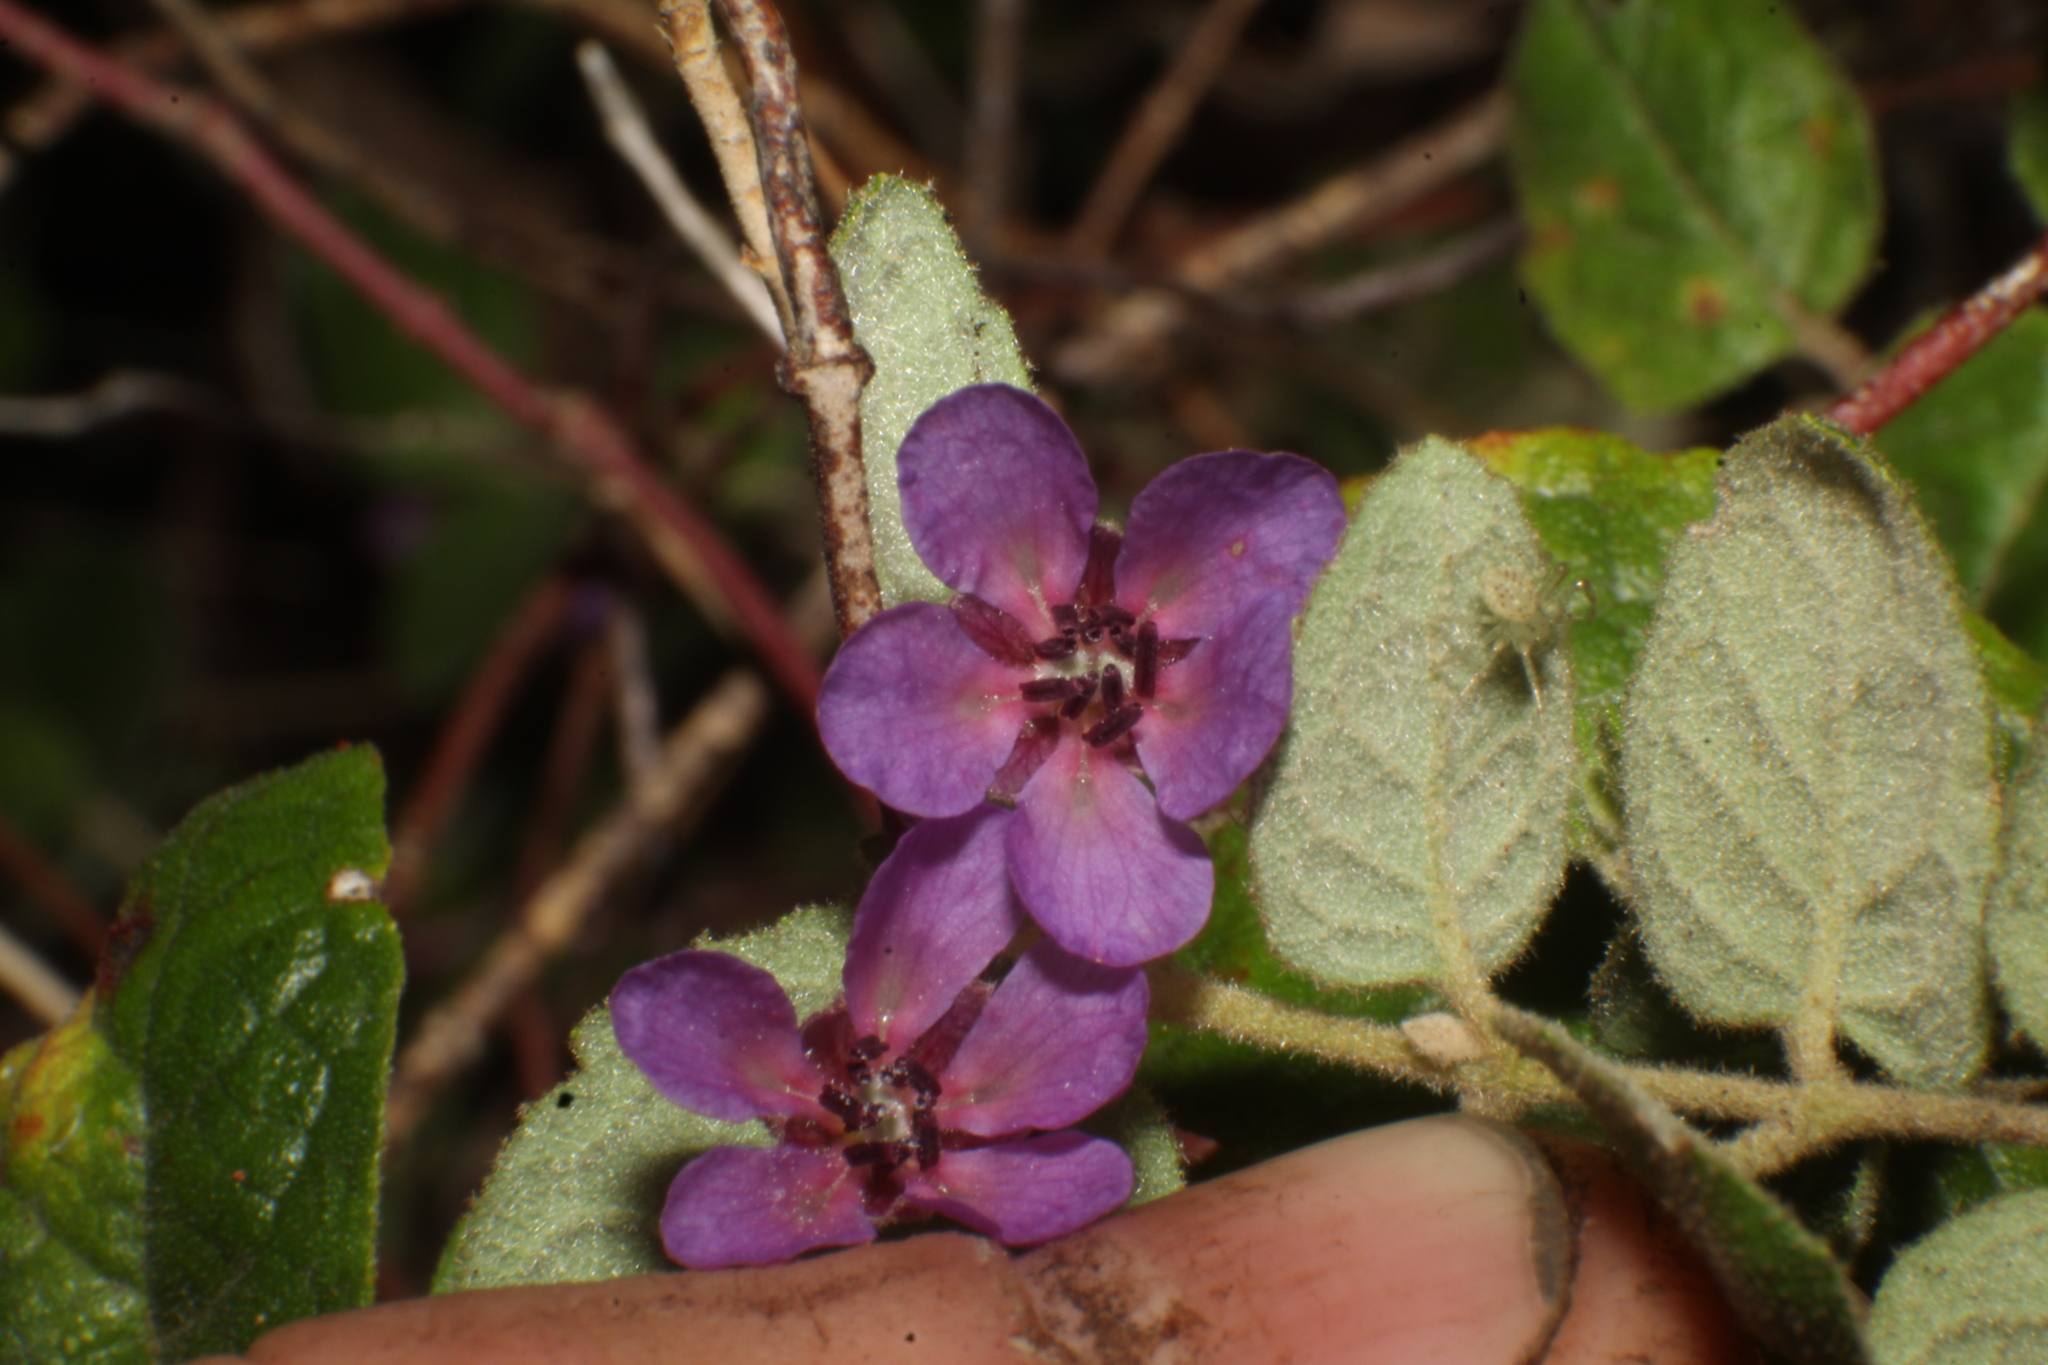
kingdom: Plantae
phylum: Tracheophyta
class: Magnoliopsida
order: Oxalidales
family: Elaeocarpaceae
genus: Tremandra
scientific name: Tremandra stelligera
